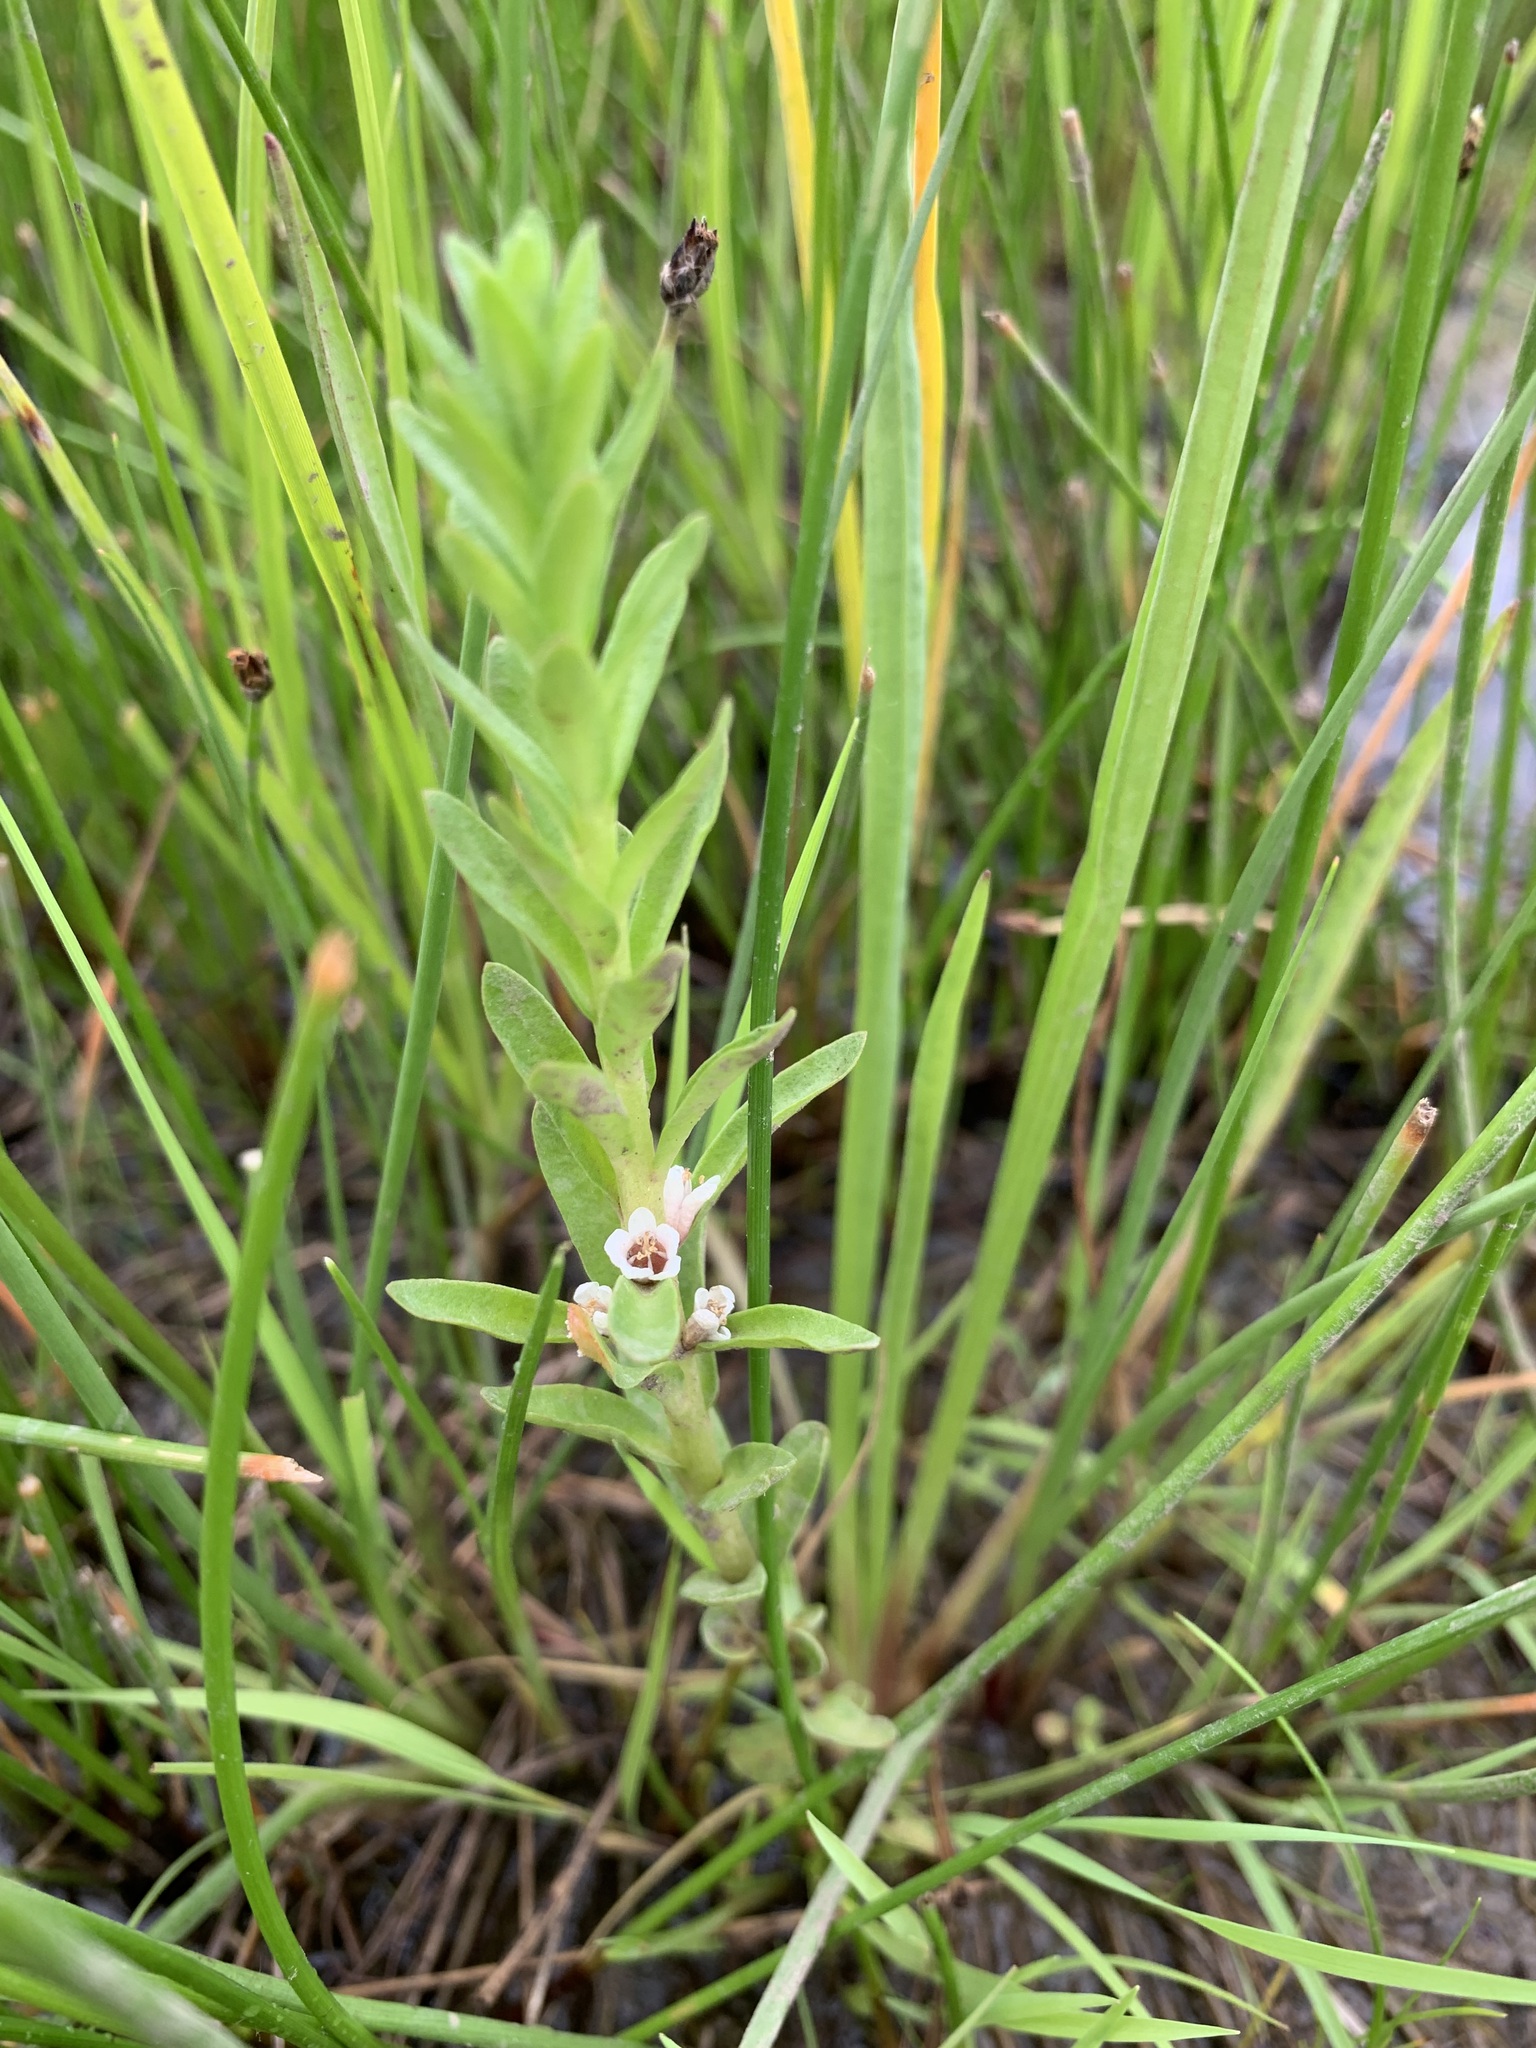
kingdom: Plantae
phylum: Tracheophyta
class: Magnoliopsida
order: Ericales
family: Primulaceae
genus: Lysimachia
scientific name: Lysimachia maritima
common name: Sea milkwort
